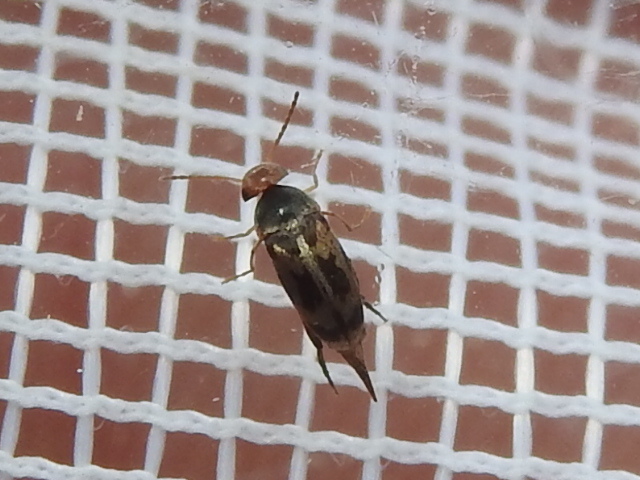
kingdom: Animalia
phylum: Arthropoda
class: Insecta
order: Coleoptera
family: Mordellidae
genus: Falsomordellistena
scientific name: Falsomordellistena hebraica
